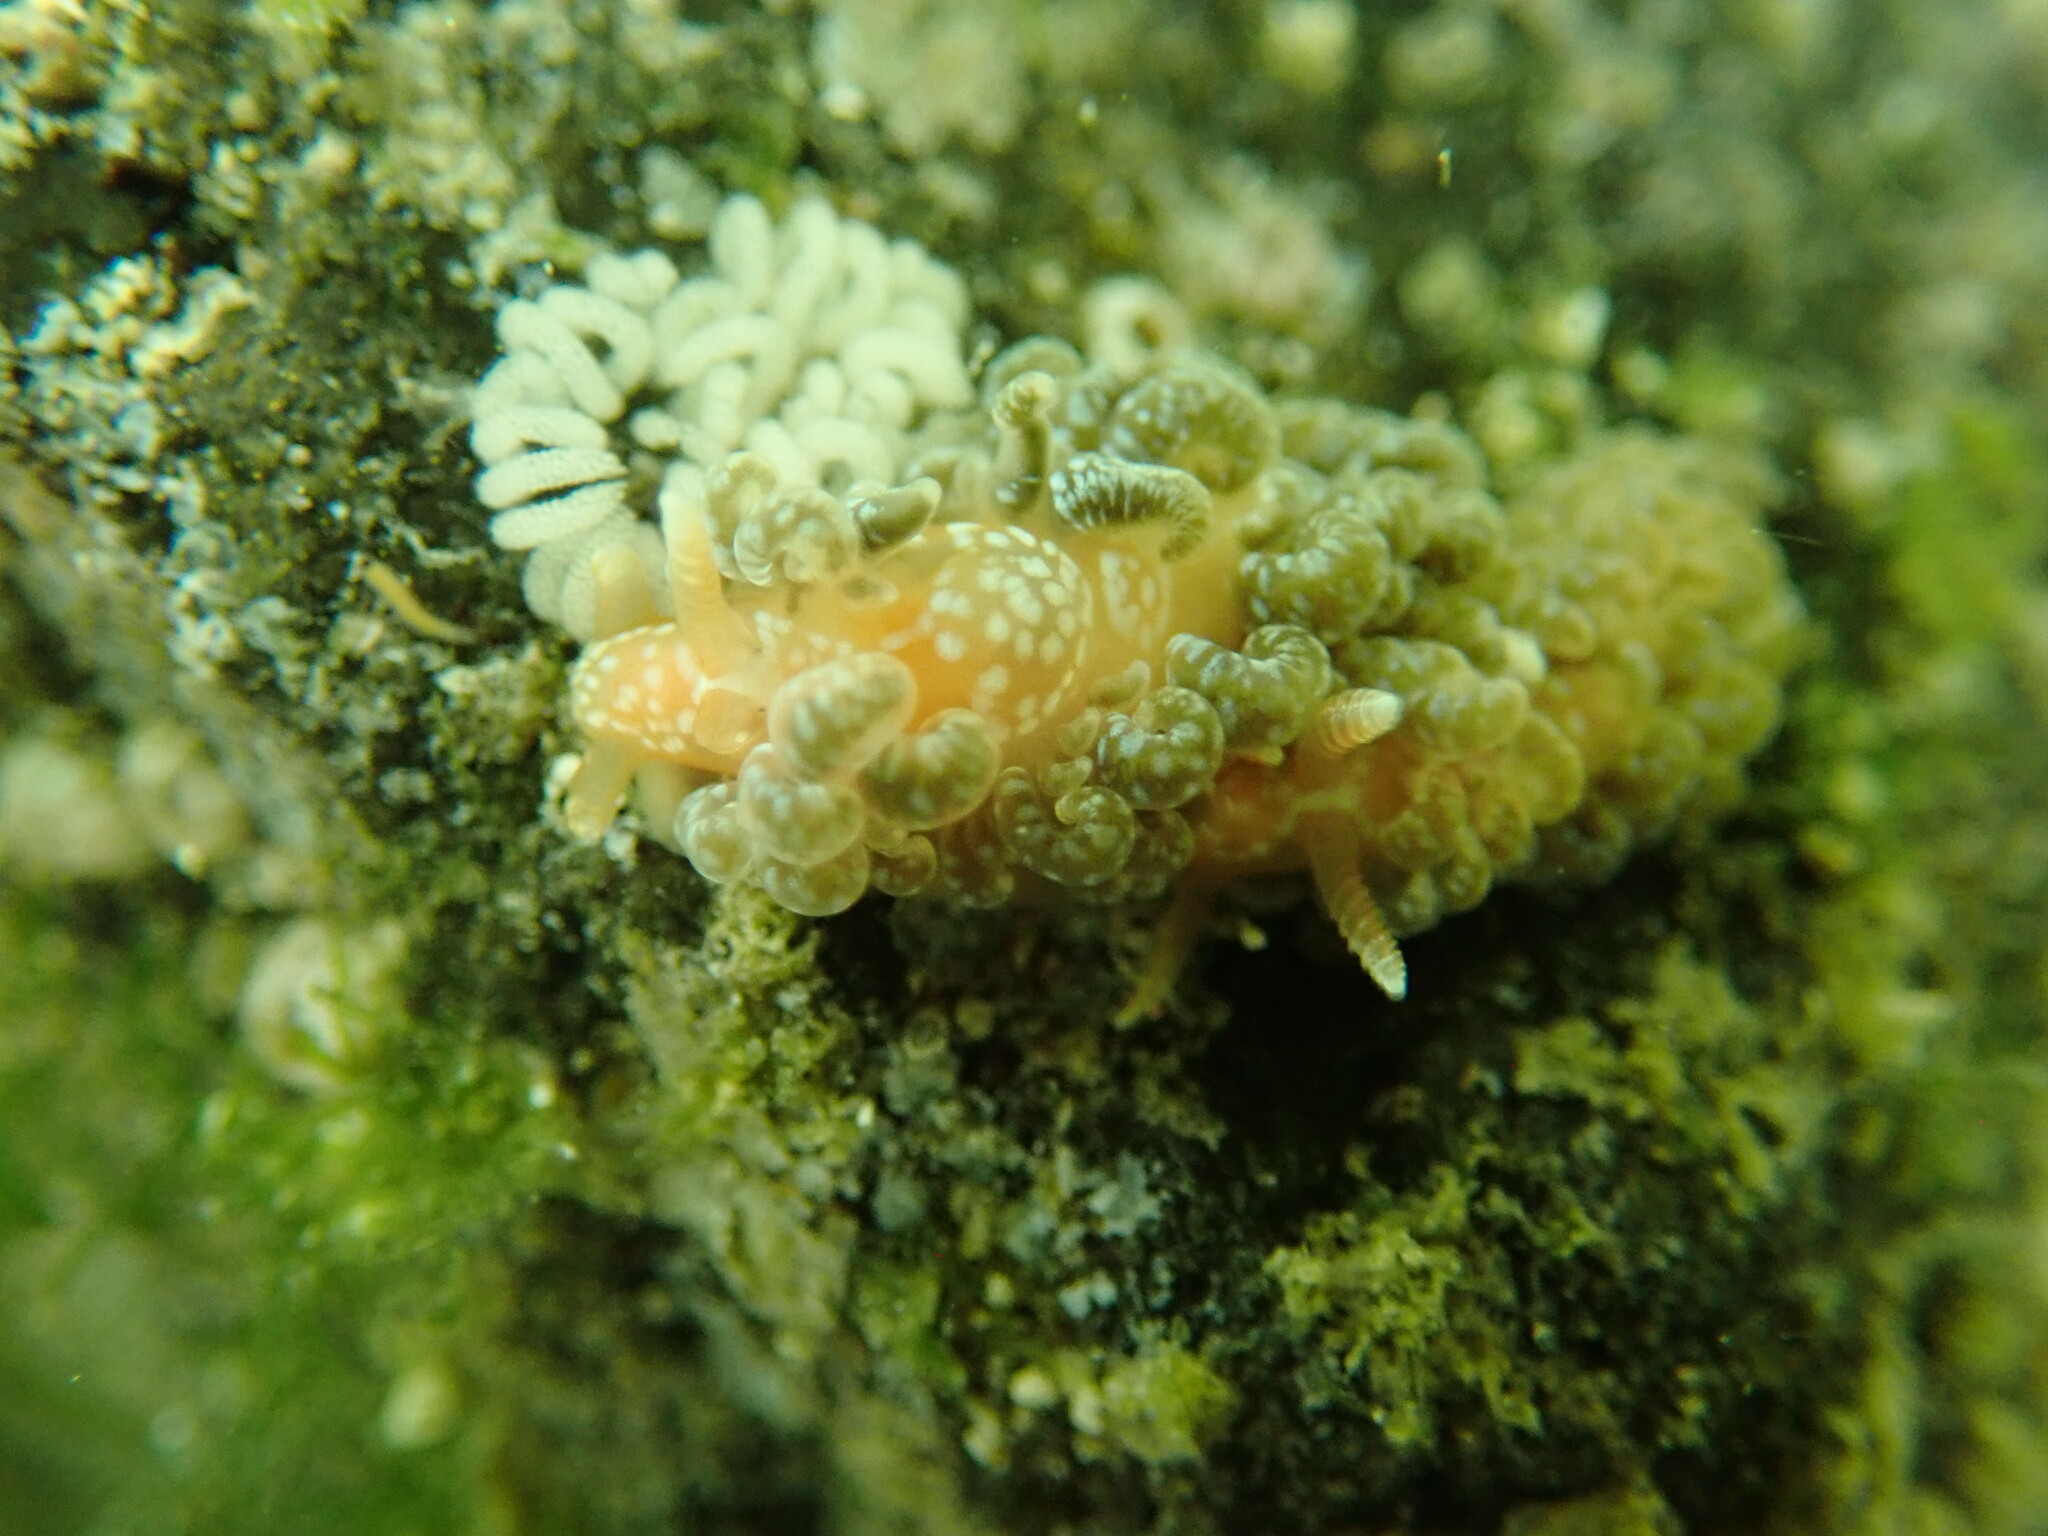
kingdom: Animalia
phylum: Mollusca
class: Gastropoda
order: Nudibranchia
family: Aeolidiidae
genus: Spurilla
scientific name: Spurilla braziliana
